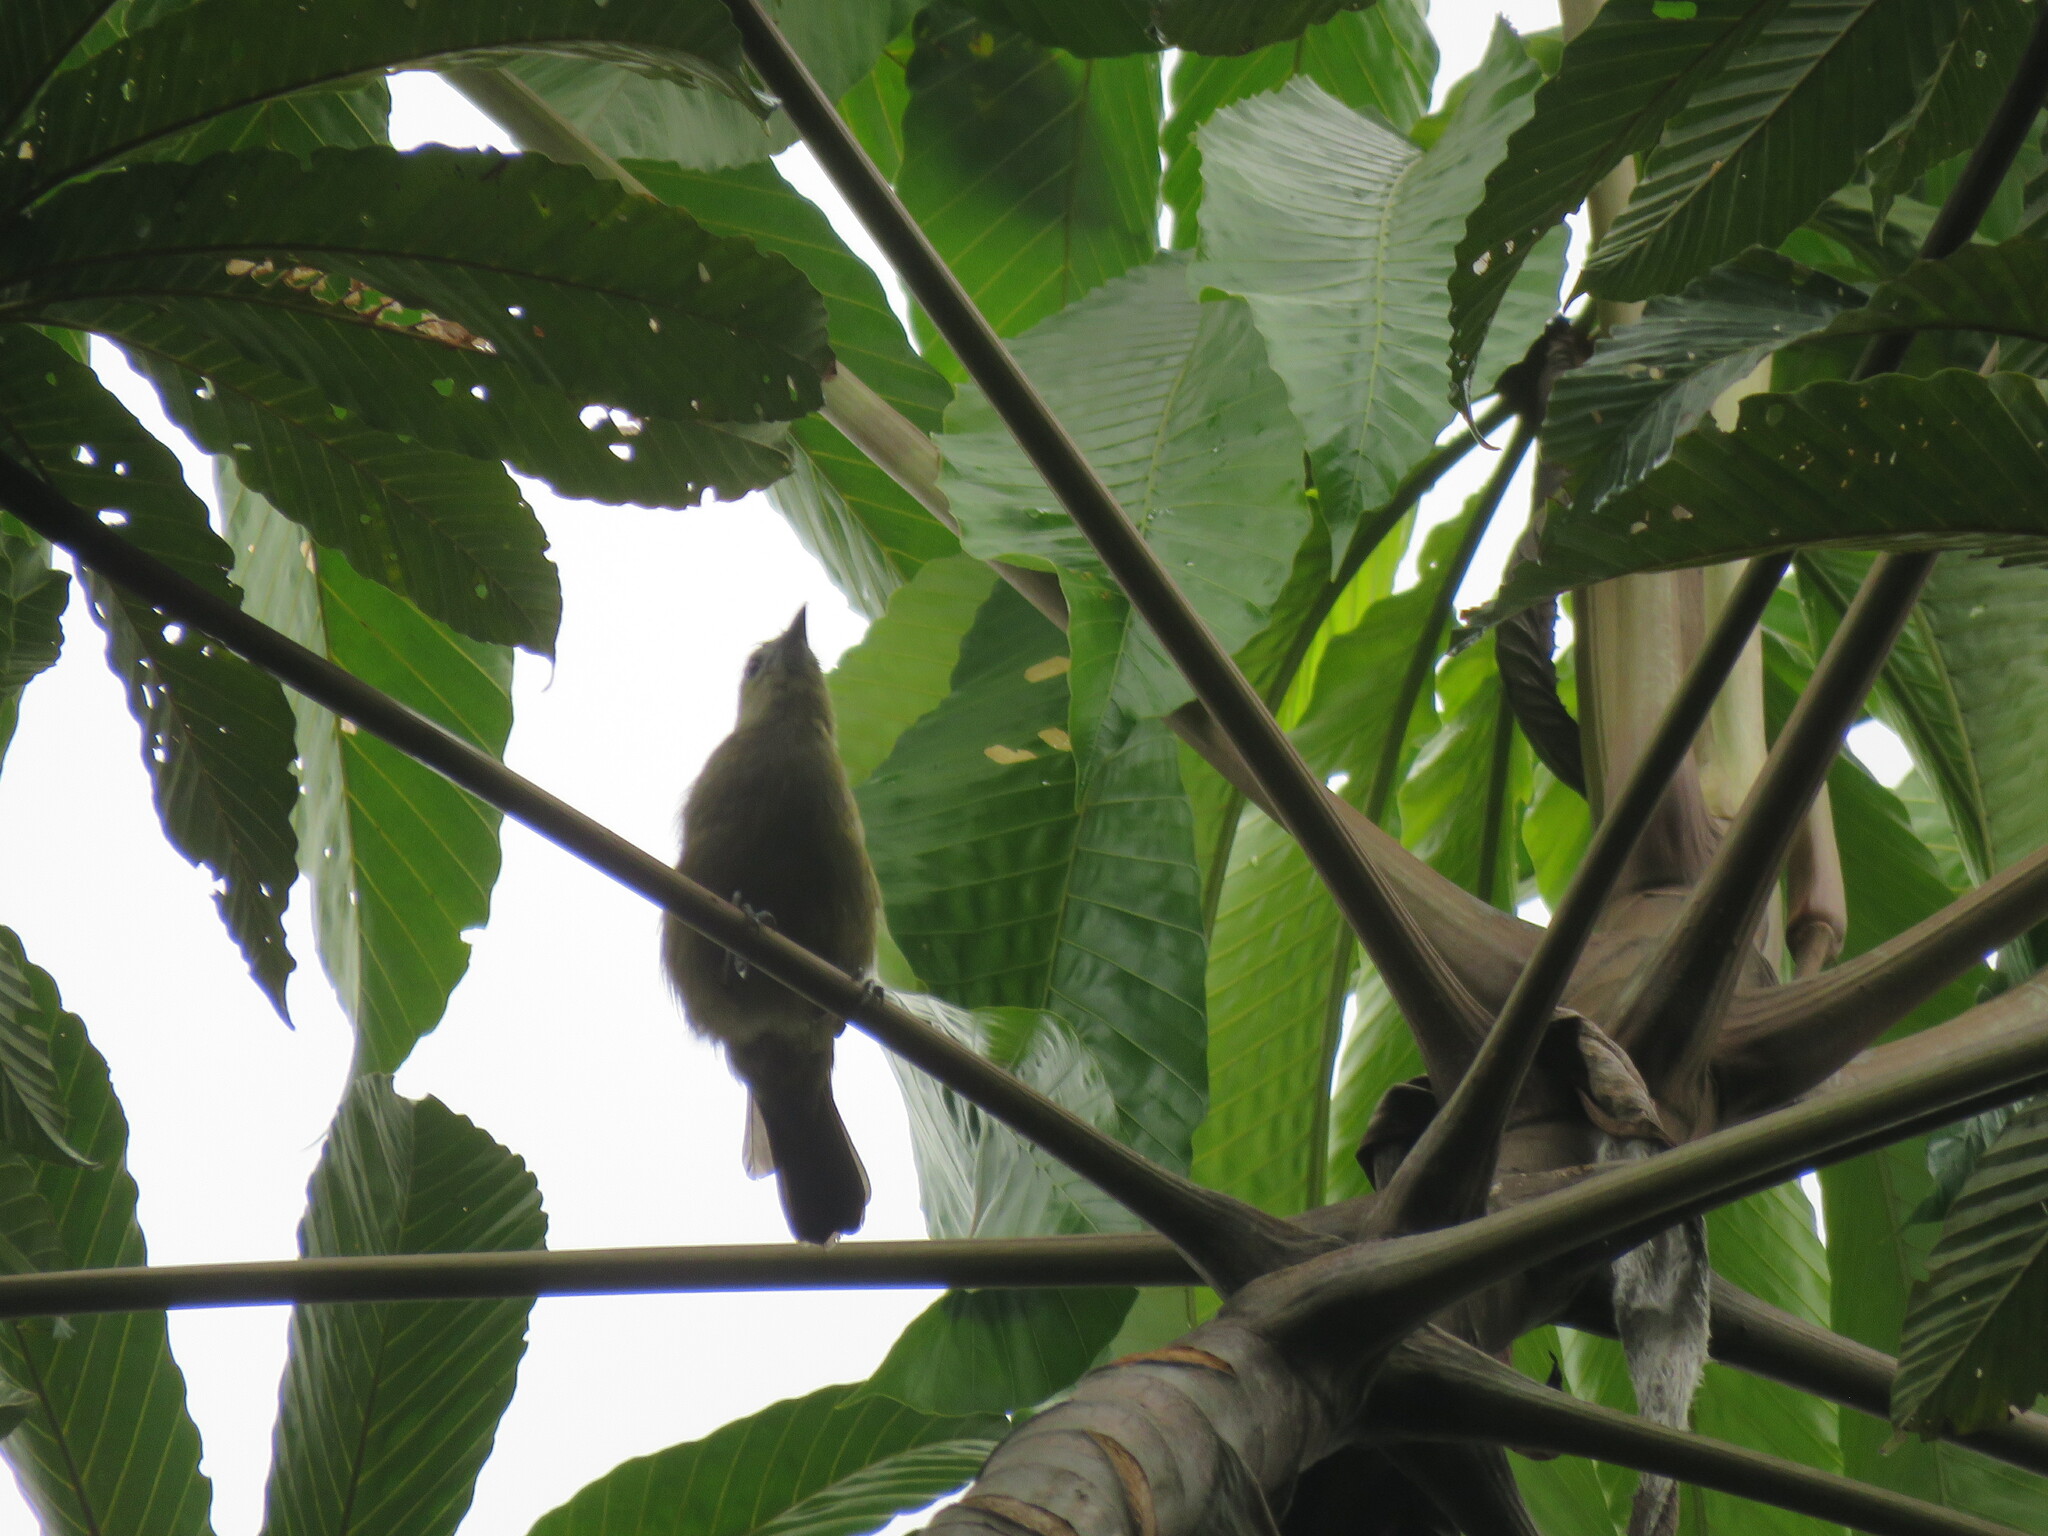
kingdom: Animalia
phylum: Chordata
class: Aves
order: Passeriformes
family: Thraupidae
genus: Thraupis
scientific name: Thraupis palmarum
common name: Palm tanager
